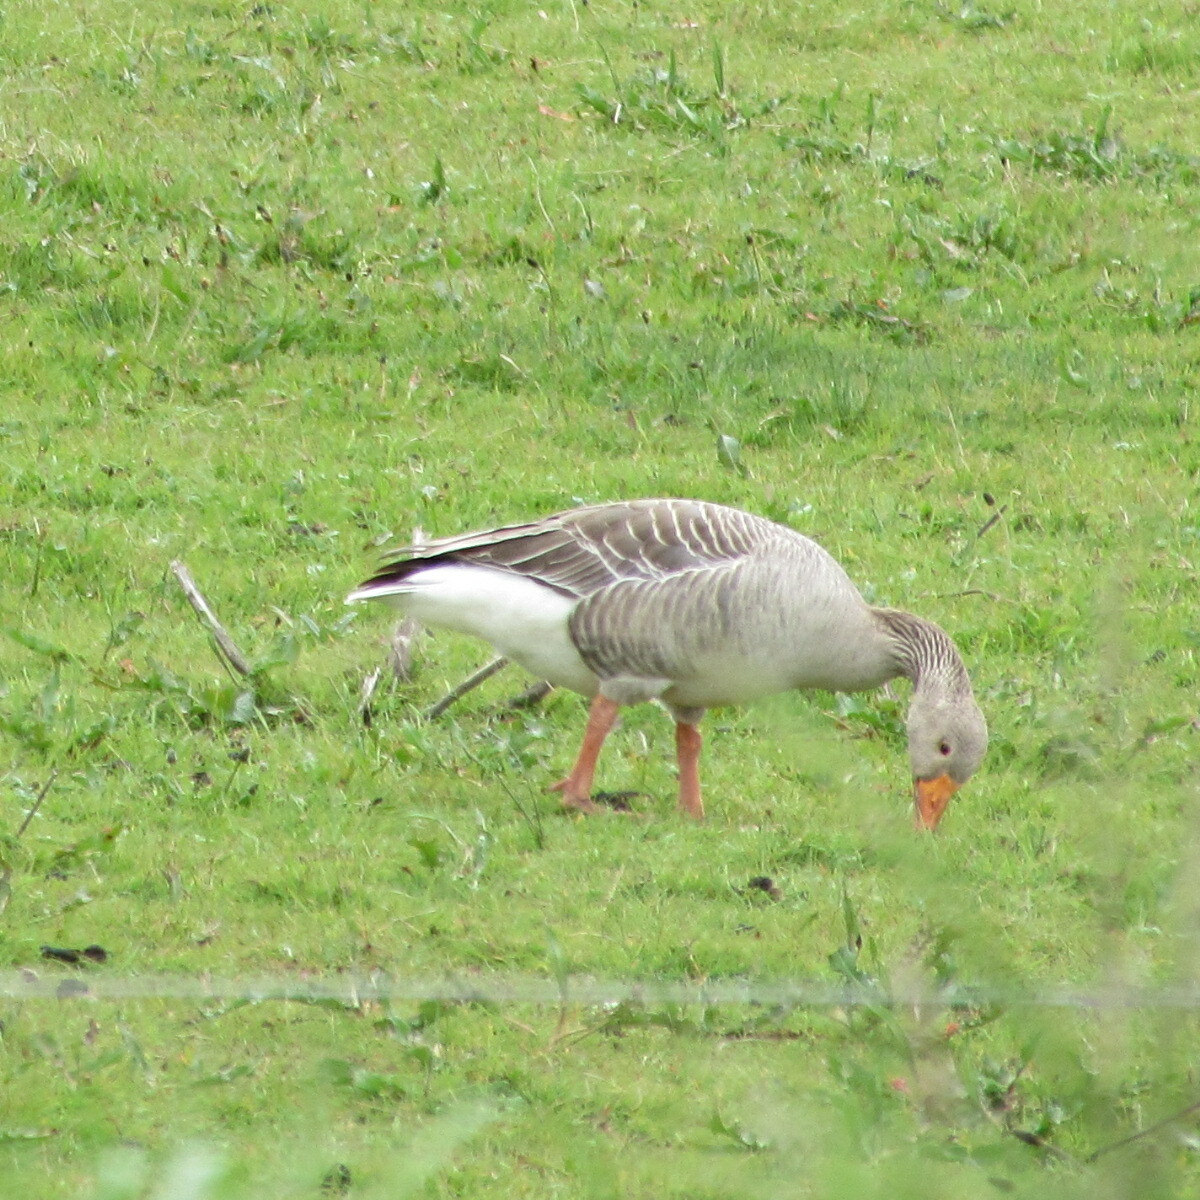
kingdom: Animalia
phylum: Chordata
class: Aves
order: Anseriformes
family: Anatidae
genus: Anser
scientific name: Anser anser
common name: Greylag goose
